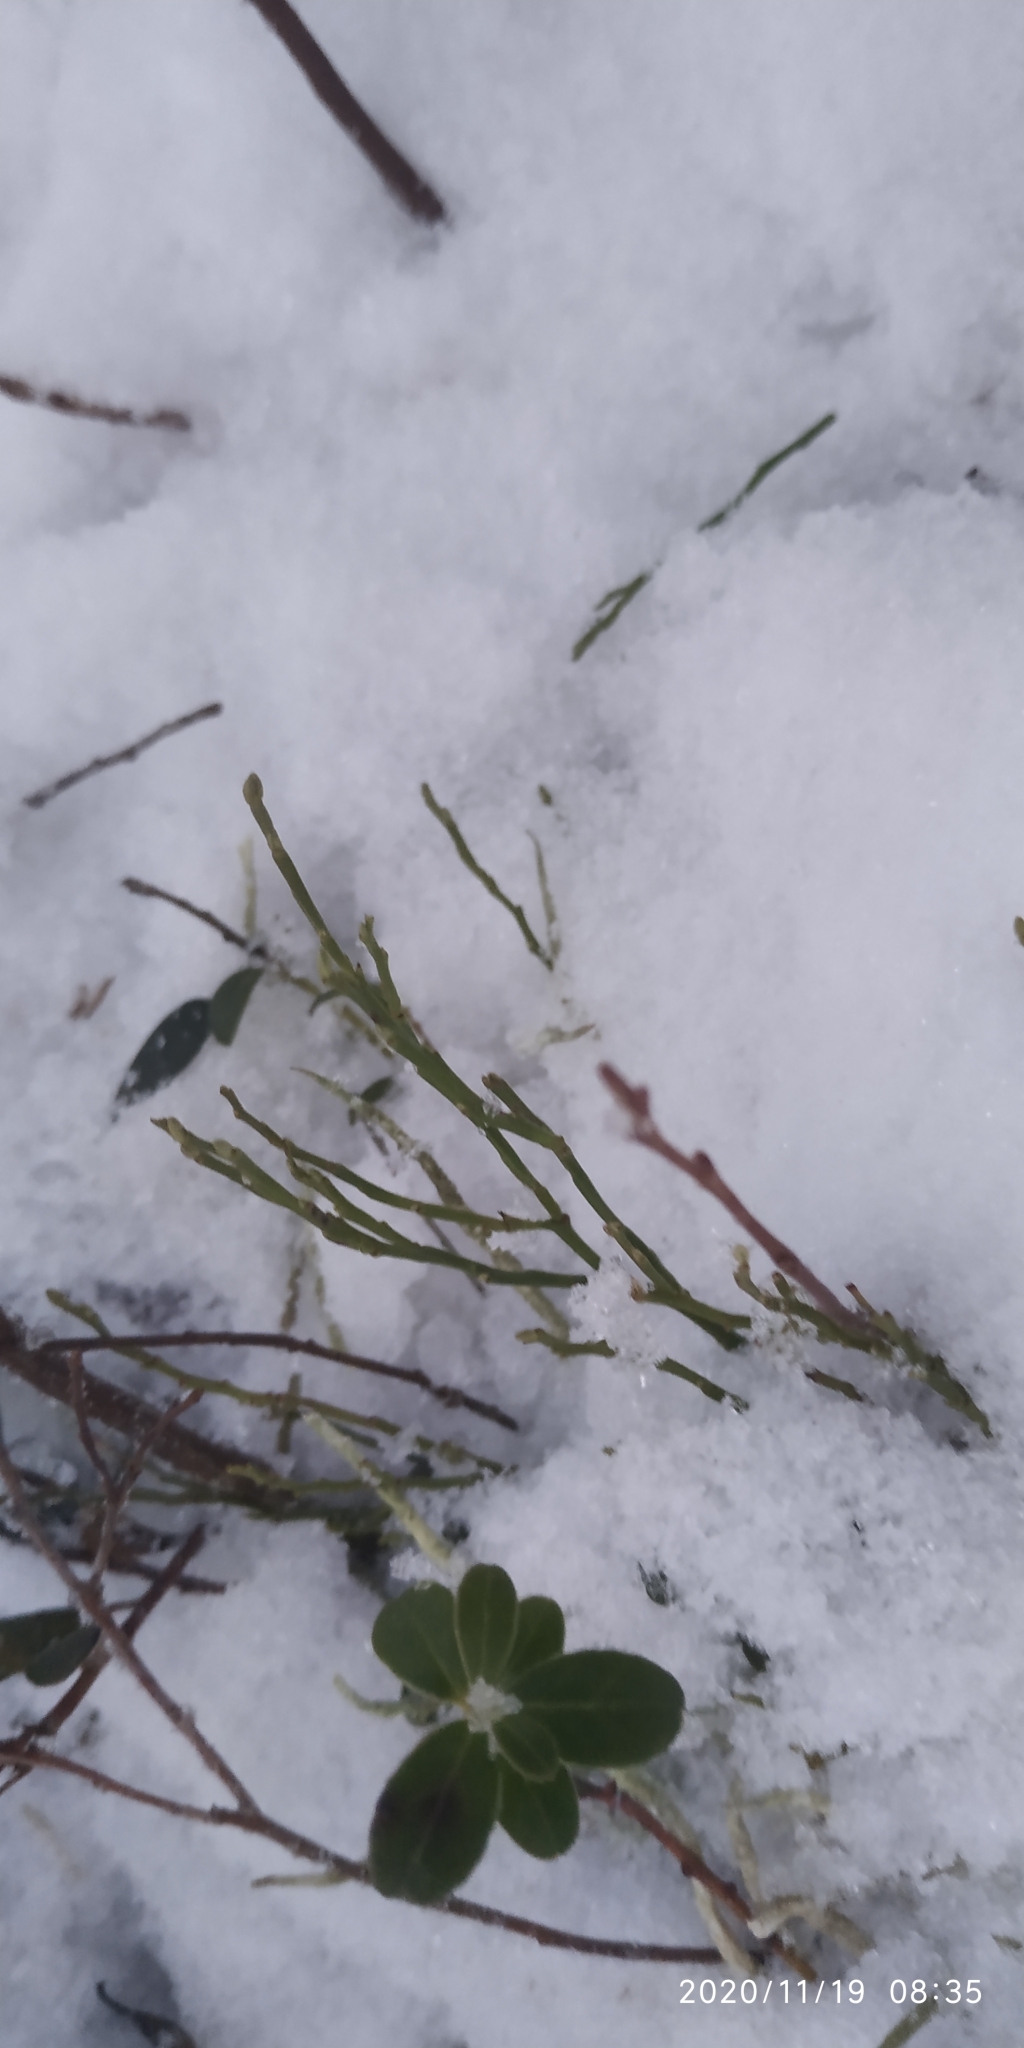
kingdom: Plantae
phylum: Tracheophyta
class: Magnoliopsida
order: Ericales
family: Ericaceae
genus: Vaccinium
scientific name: Vaccinium myrtillus
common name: Bilberry
